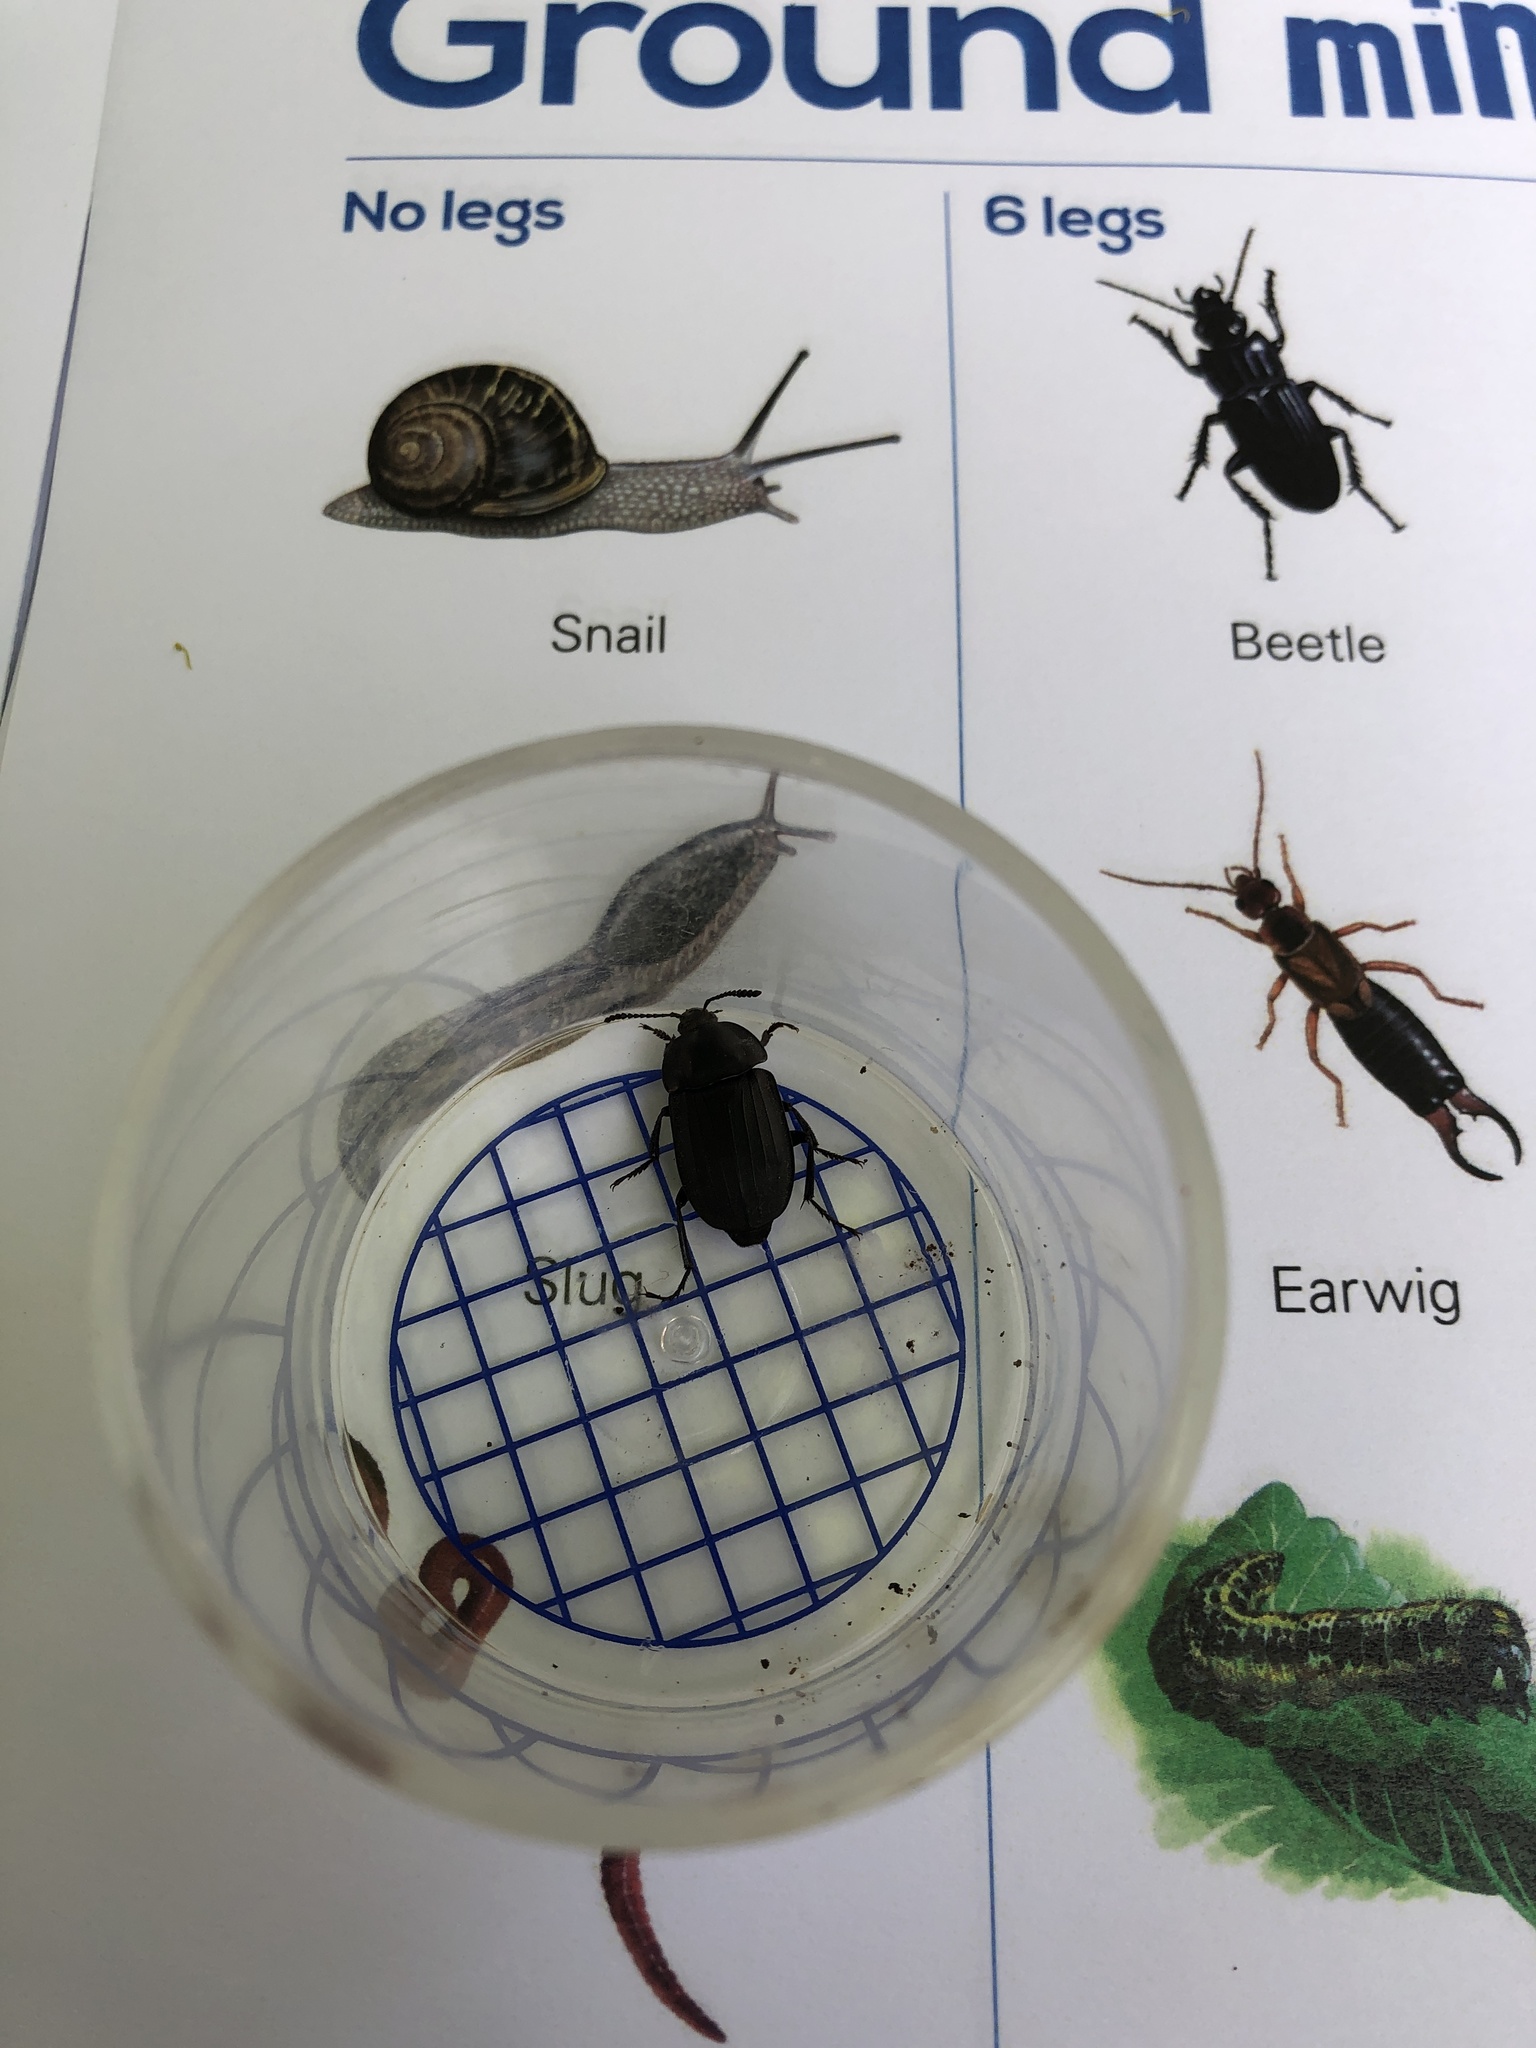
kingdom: Animalia
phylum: Arthropoda
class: Insecta
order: Coleoptera
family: Staphylinidae
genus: Silpha
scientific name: Silpha tristis
